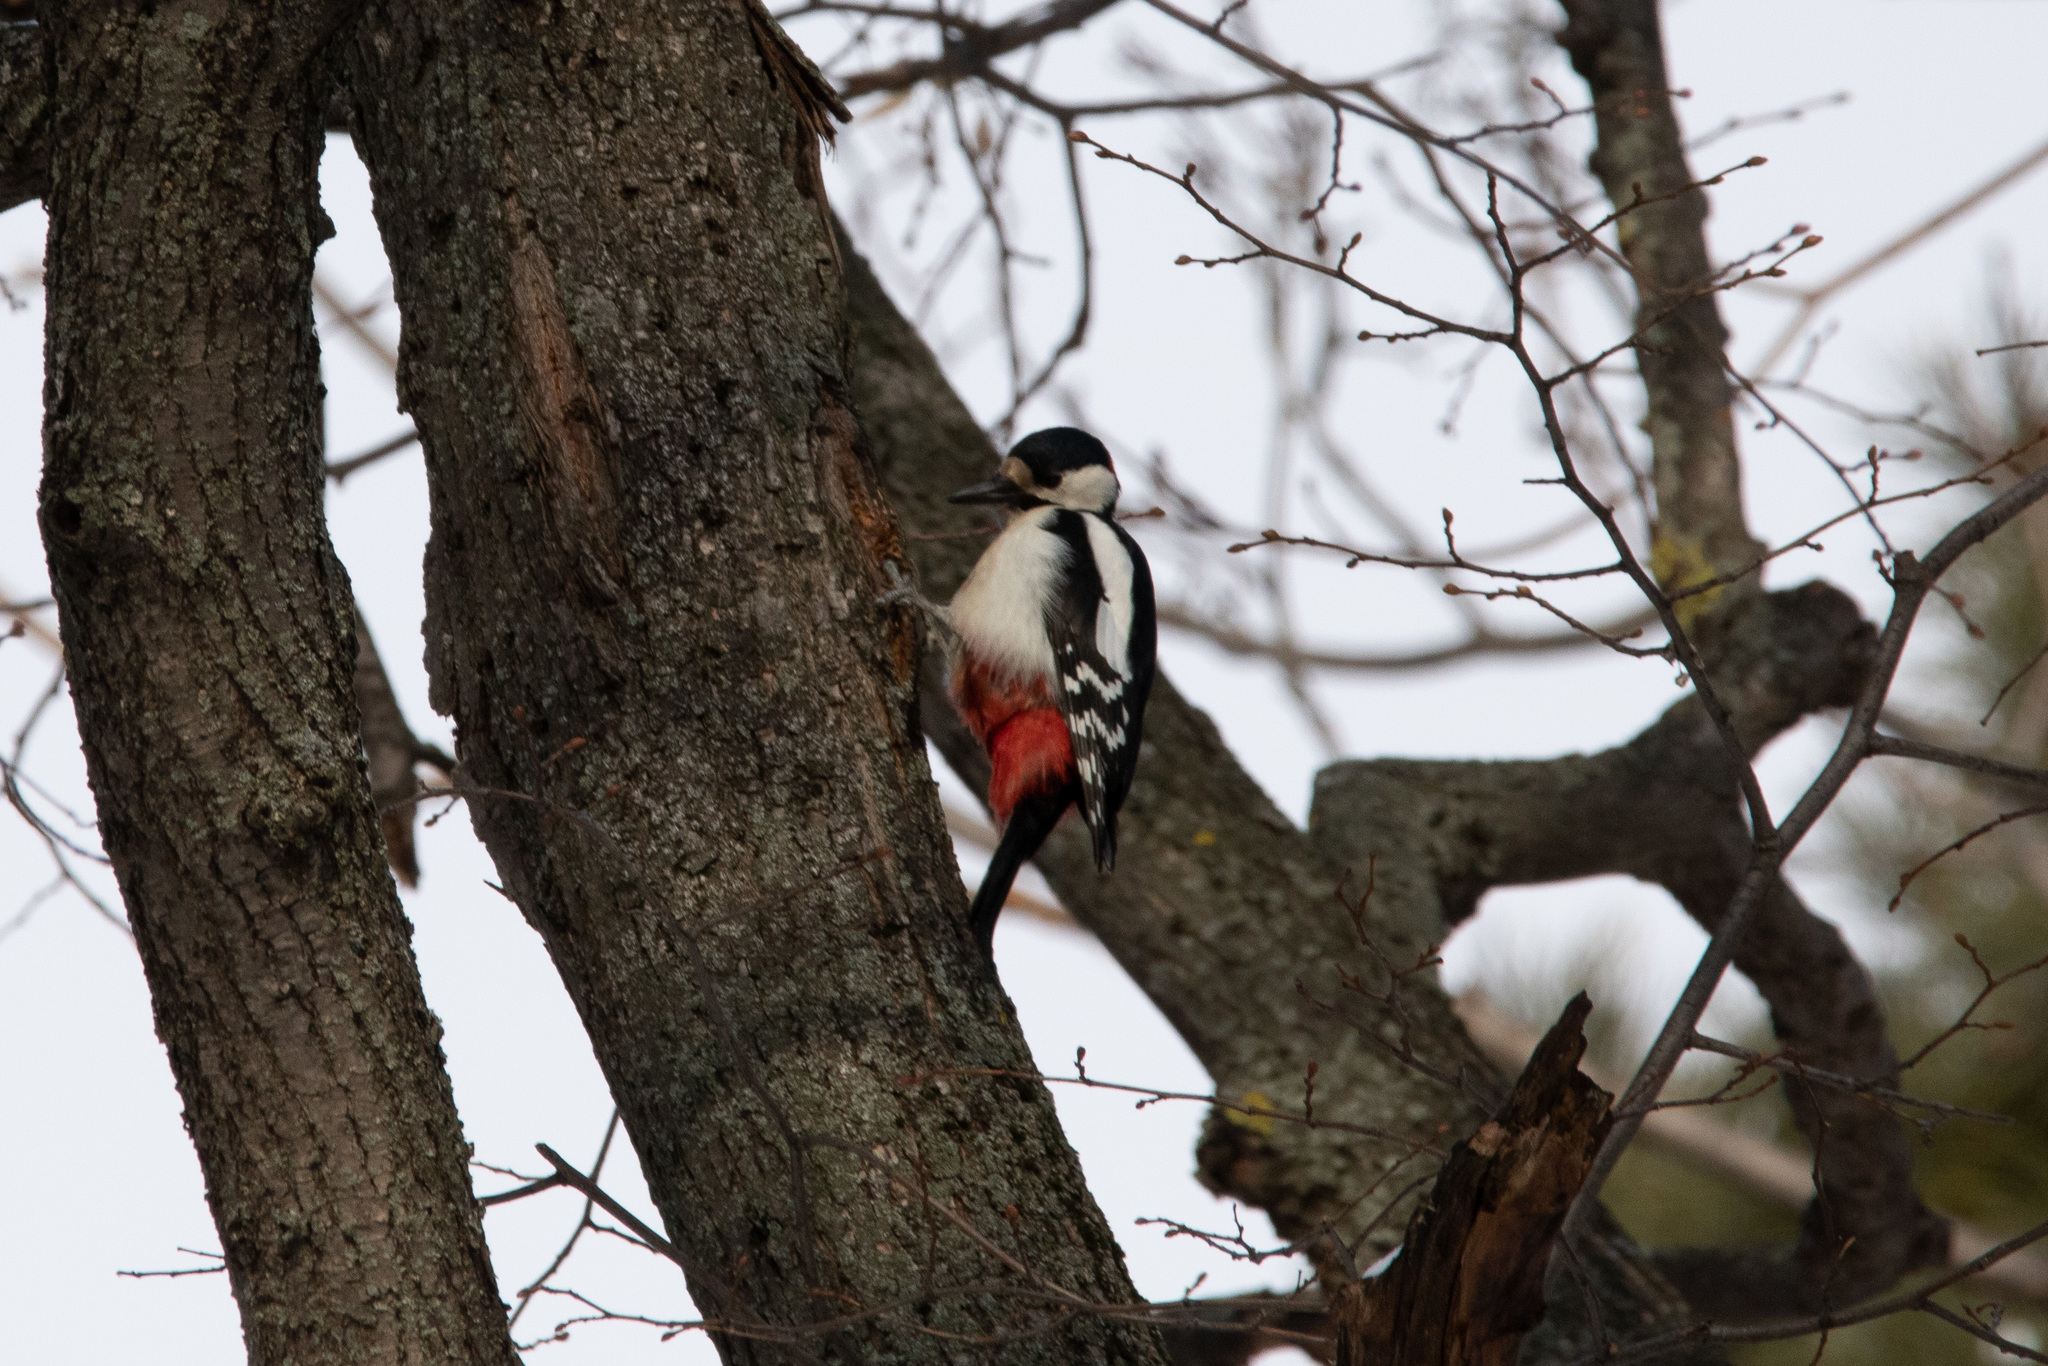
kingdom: Animalia
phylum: Chordata
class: Aves
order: Piciformes
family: Picidae
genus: Dendrocopos
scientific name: Dendrocopos major
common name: Great spotted woodpecker
